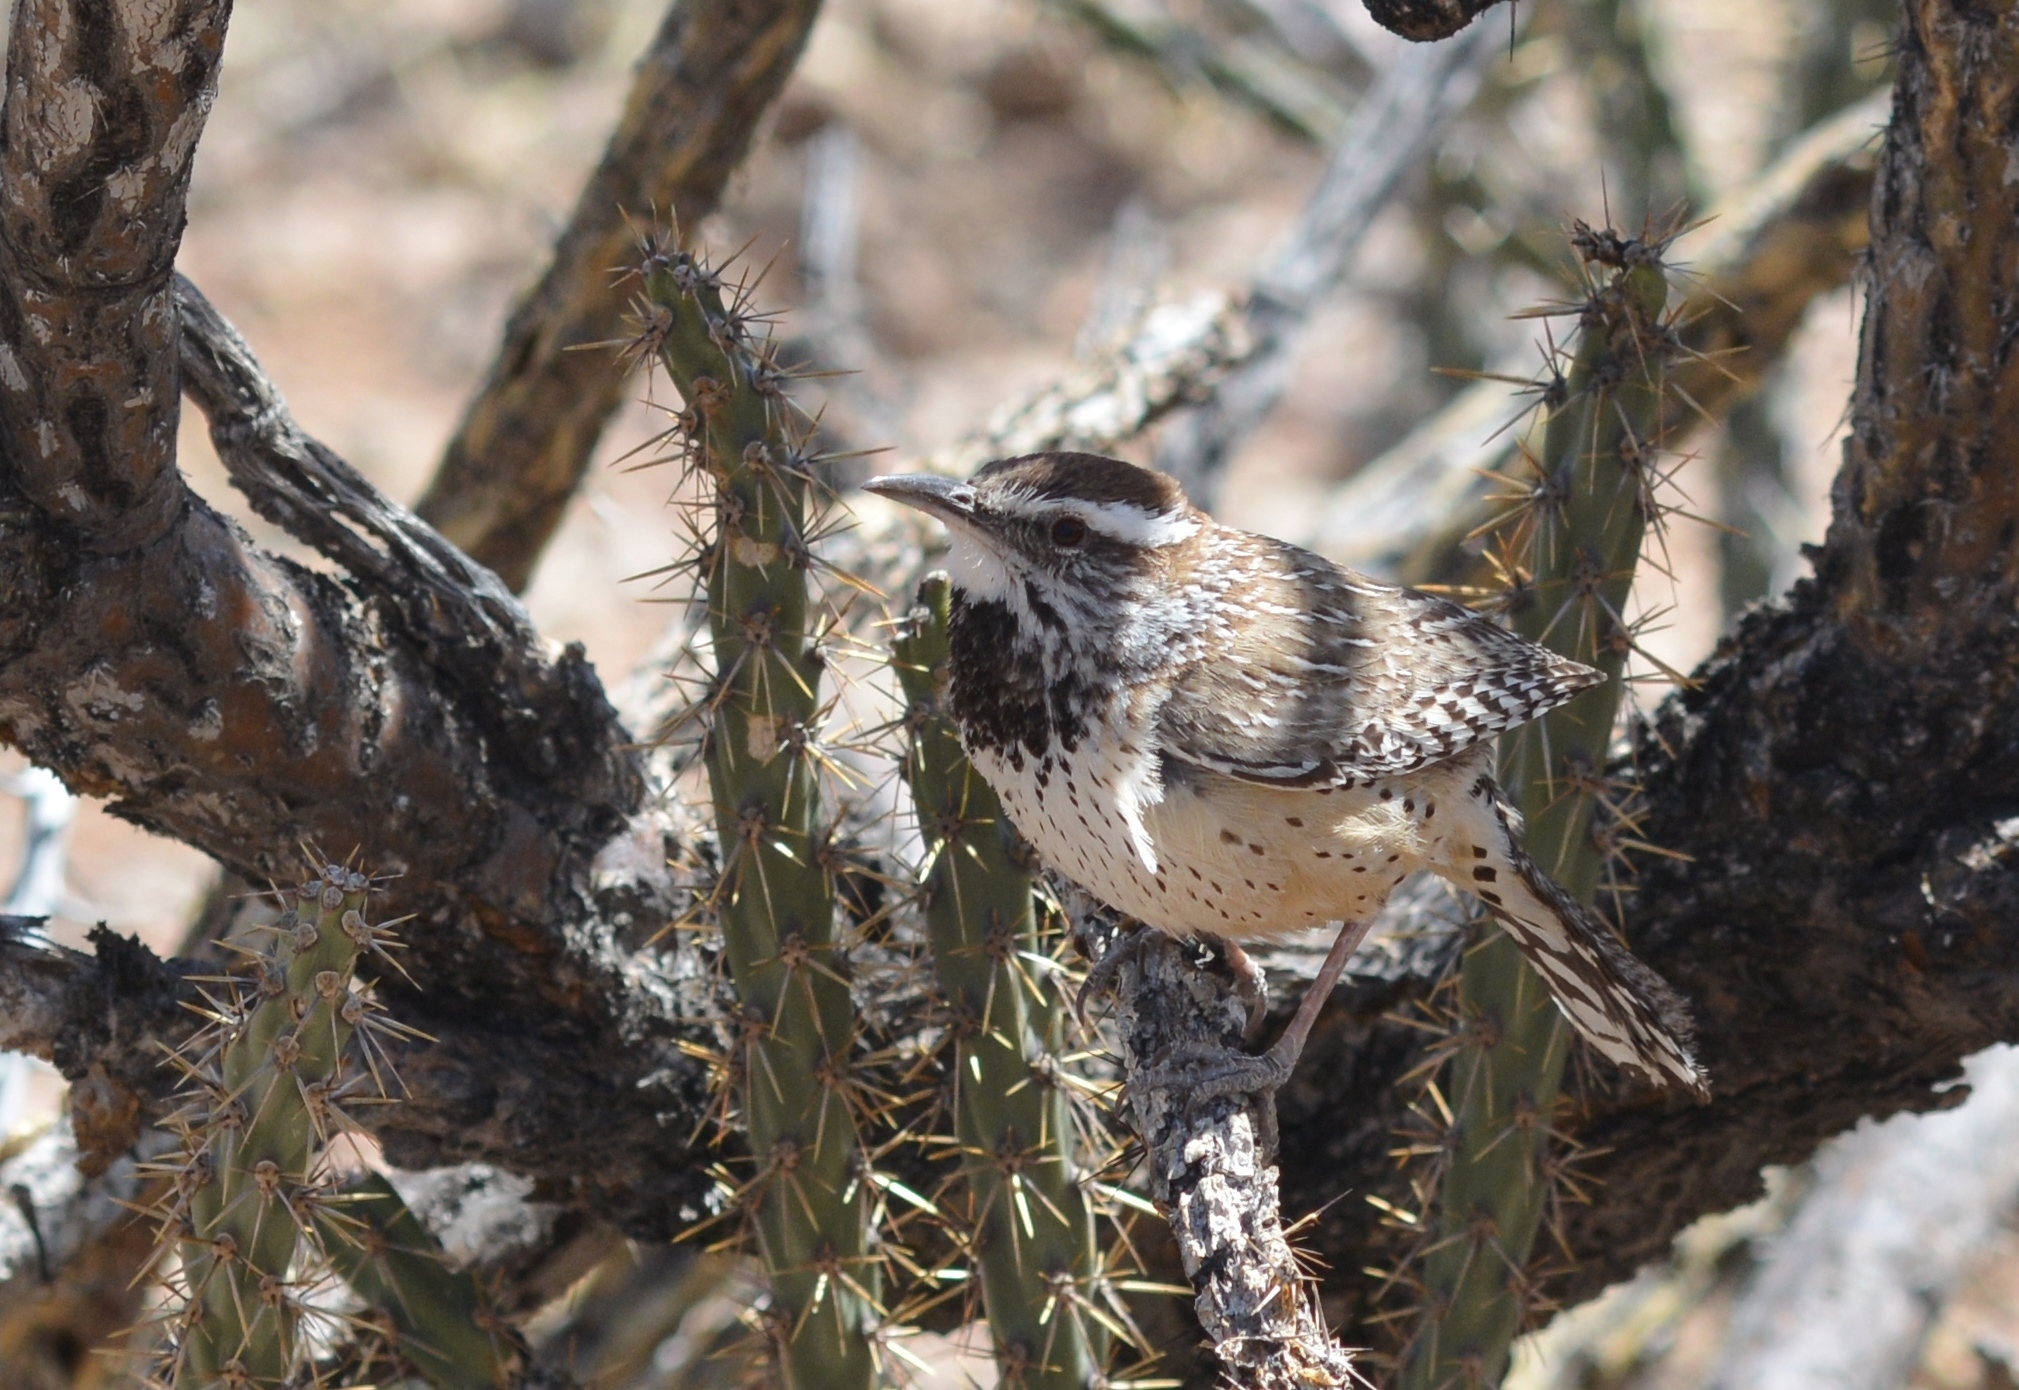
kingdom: Animalia
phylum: Chordata
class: Aves
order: Passeriformes
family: Troglodytidae
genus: Campylorhynchus
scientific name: Campylorhynchus brunneicapillus
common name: Cactus wren
